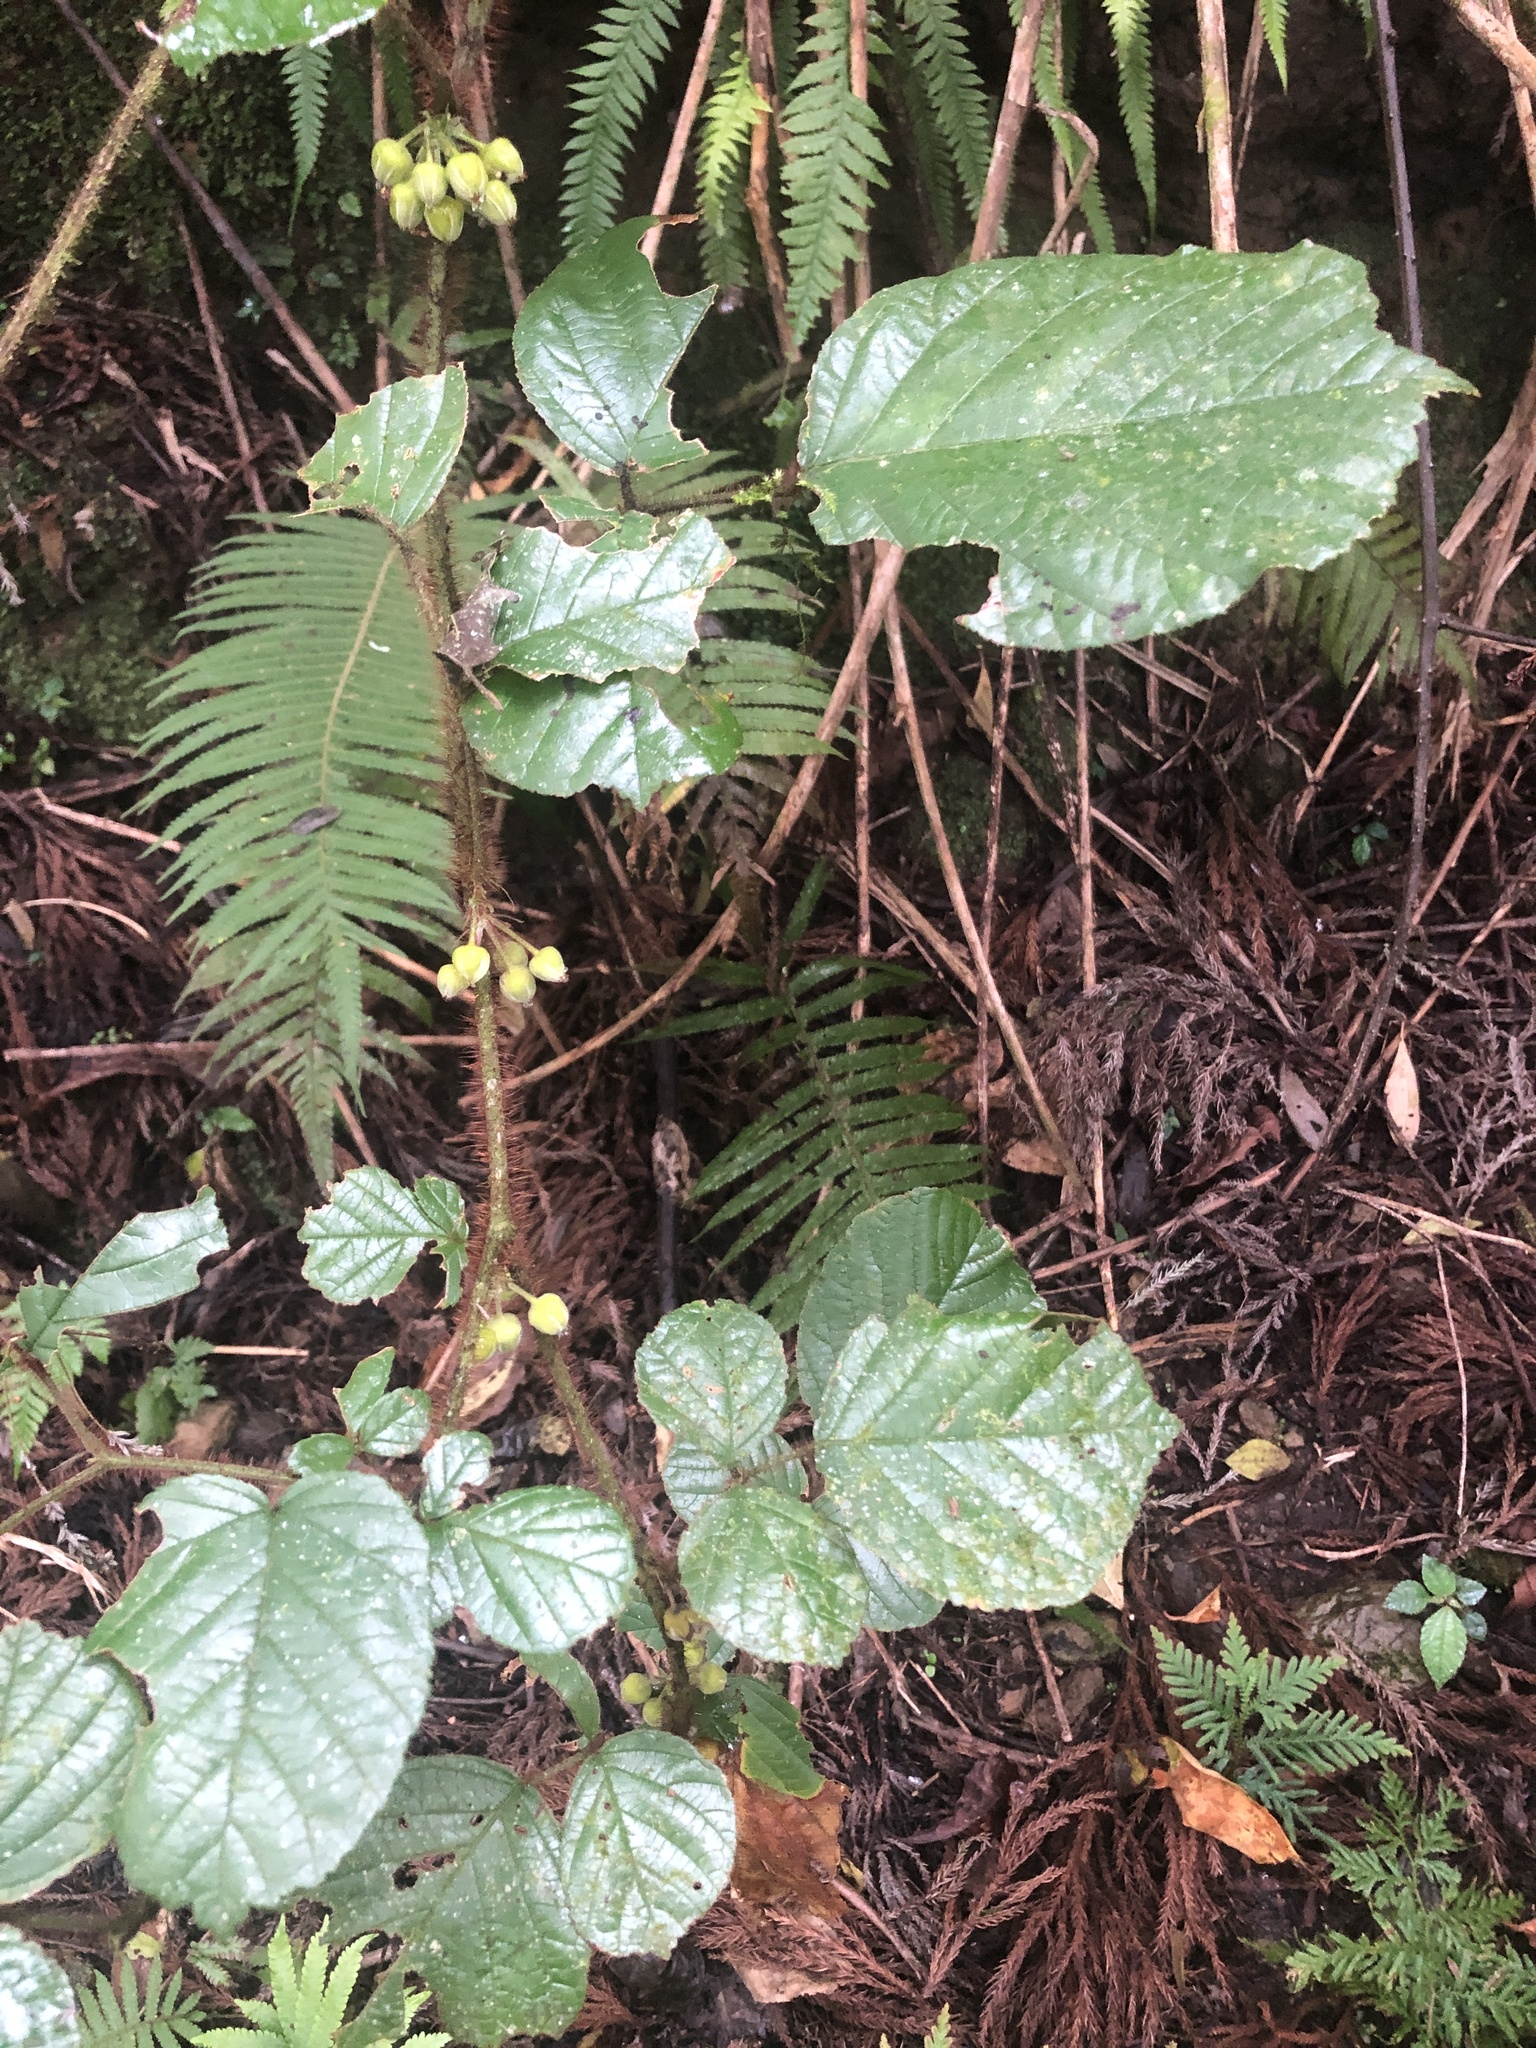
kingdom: Plantae
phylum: Tracheophyta
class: Magnoliopsida
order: Rosales
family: Rosaceae
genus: Rubus
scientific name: Rubus ellipticus
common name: Cheeseberry
